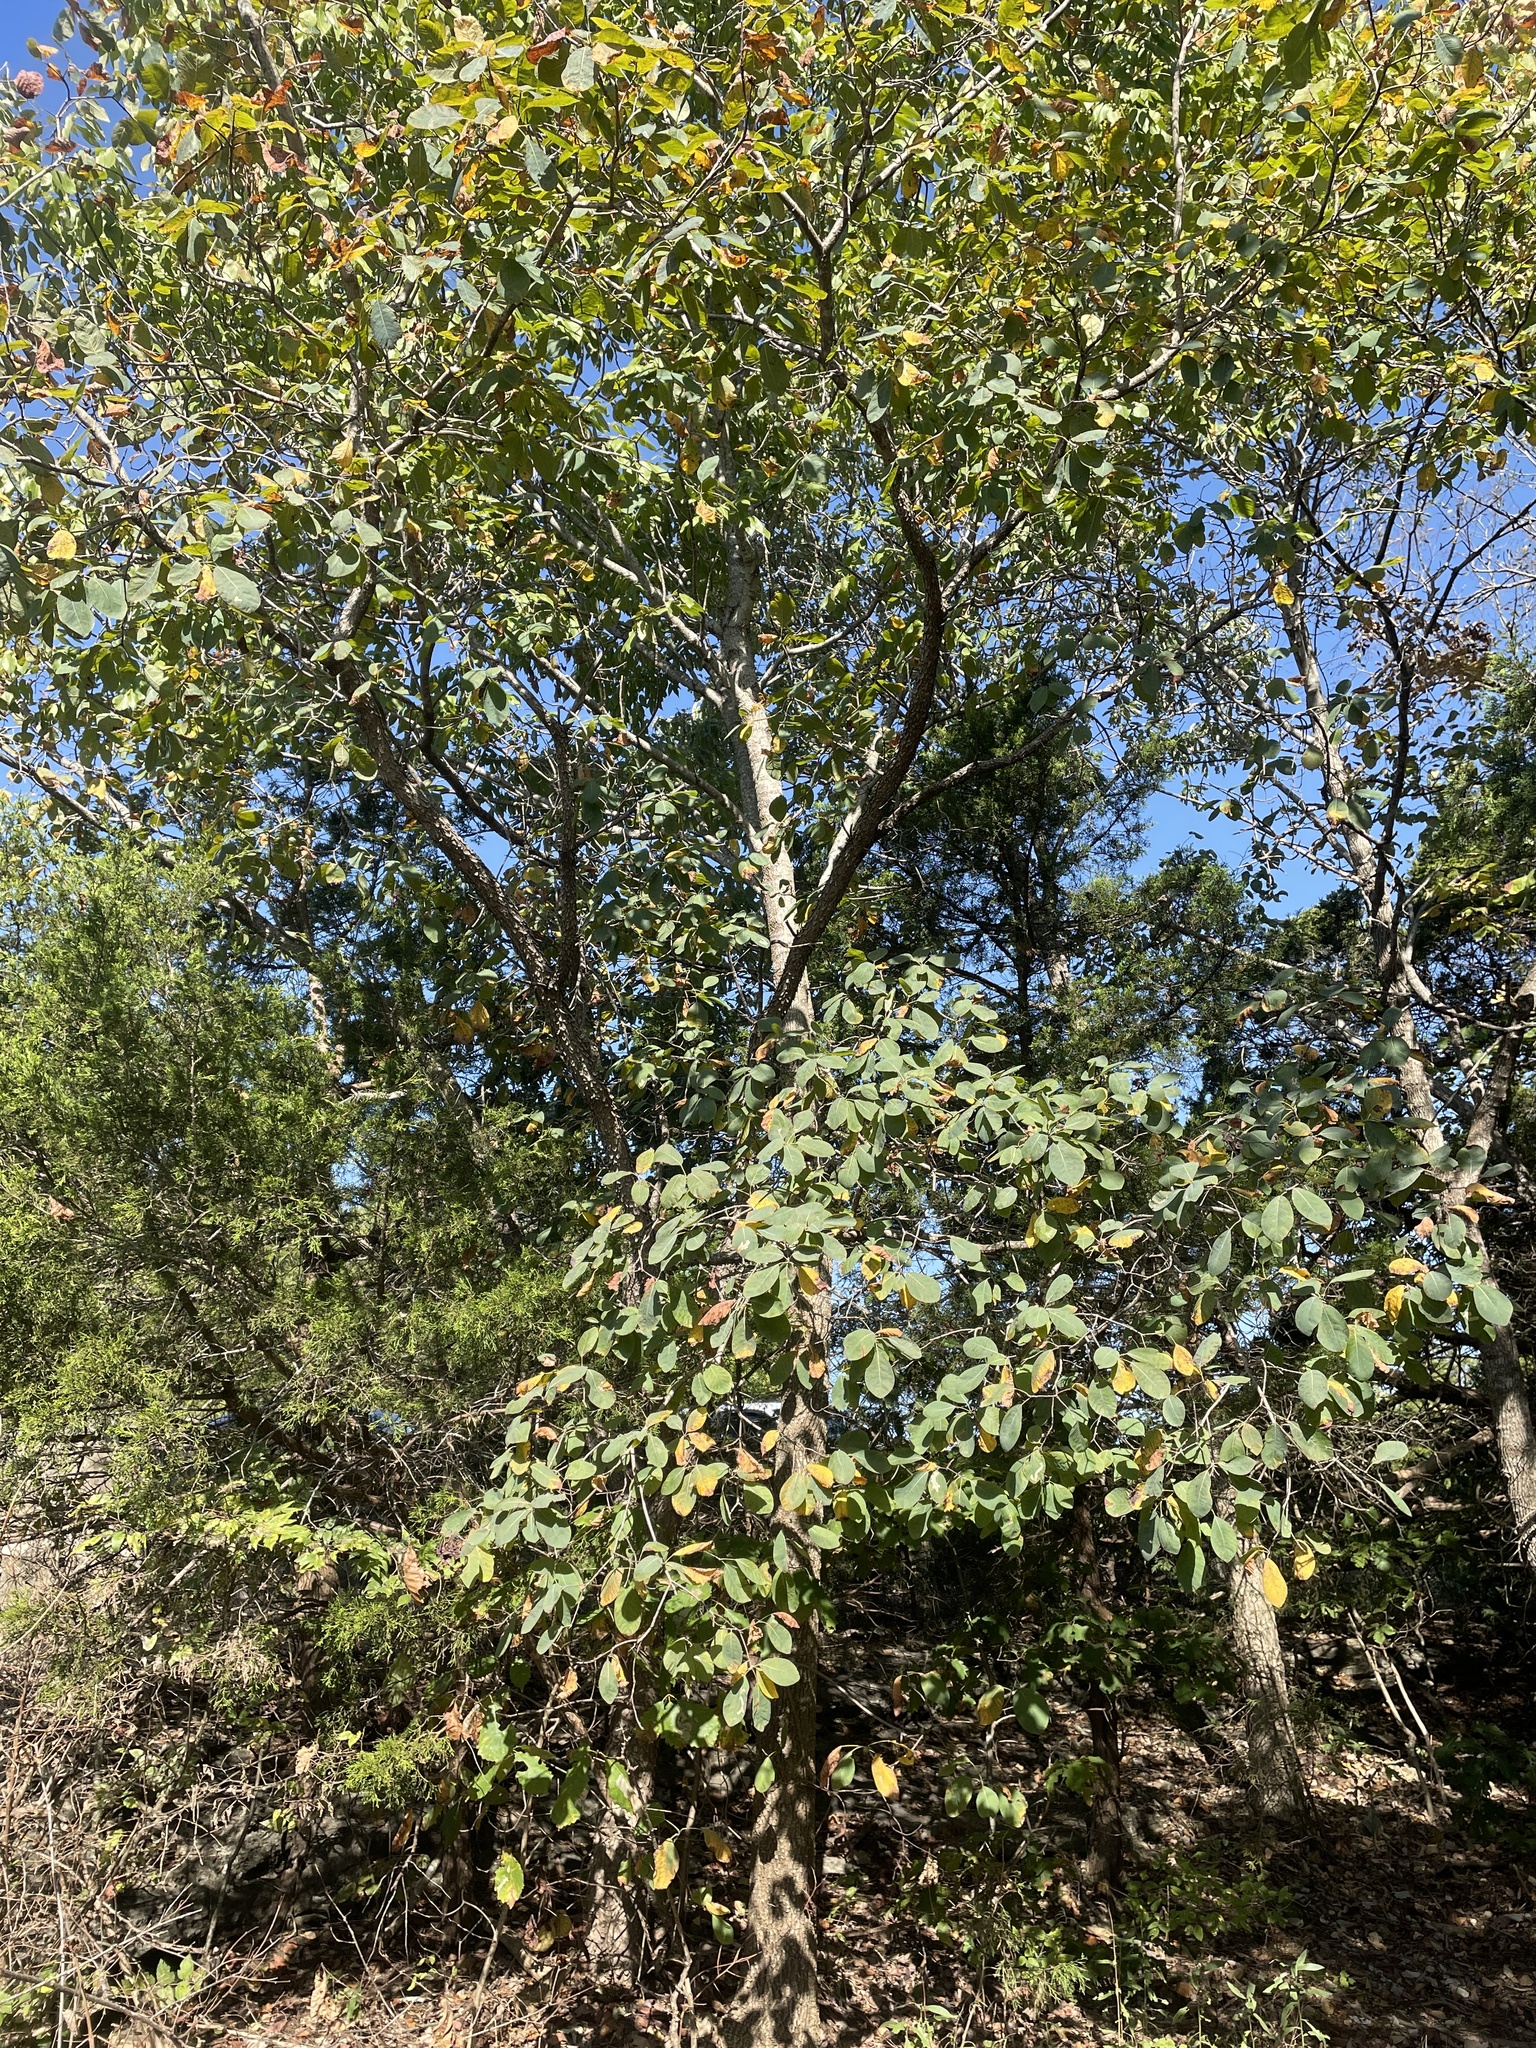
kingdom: Plantae
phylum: Tracheophyta
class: Magnoliopsida
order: Sapindales
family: Anacardiaceae
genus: Cotinus
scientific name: Cotinus obovatus
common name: Chittamwood
